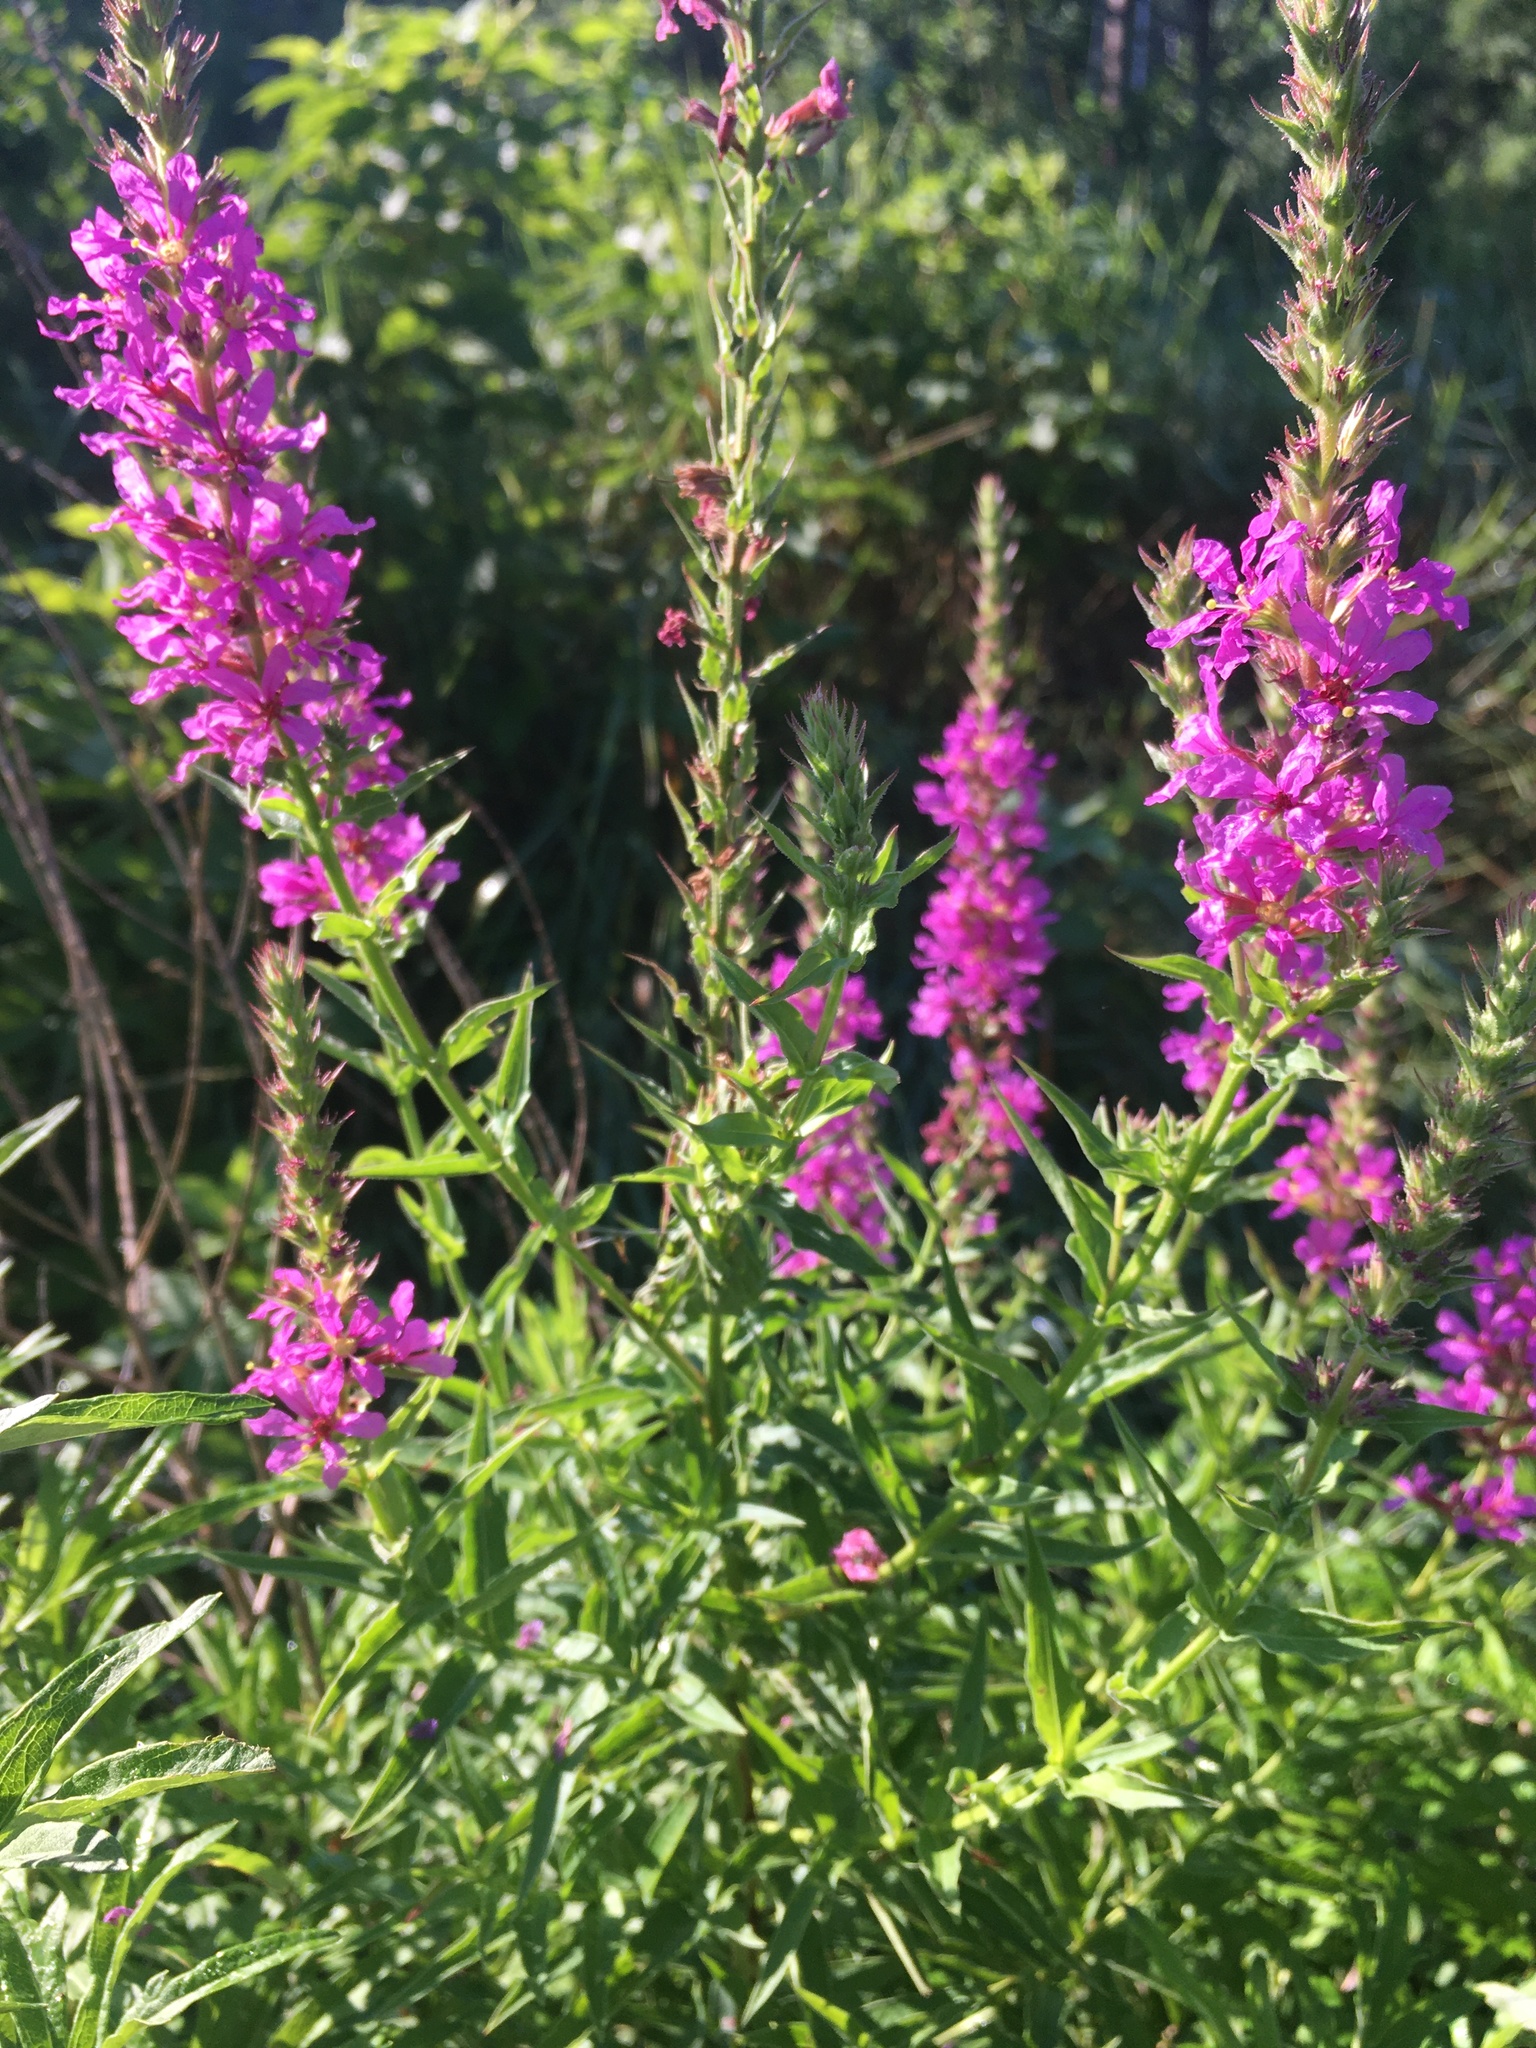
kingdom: Plantae
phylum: Tracheophyta
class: Magnoliopsida
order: Myrtales
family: Lythraceae
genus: Lythrum
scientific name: Lythrum salicaria
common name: Purple loosestrife
